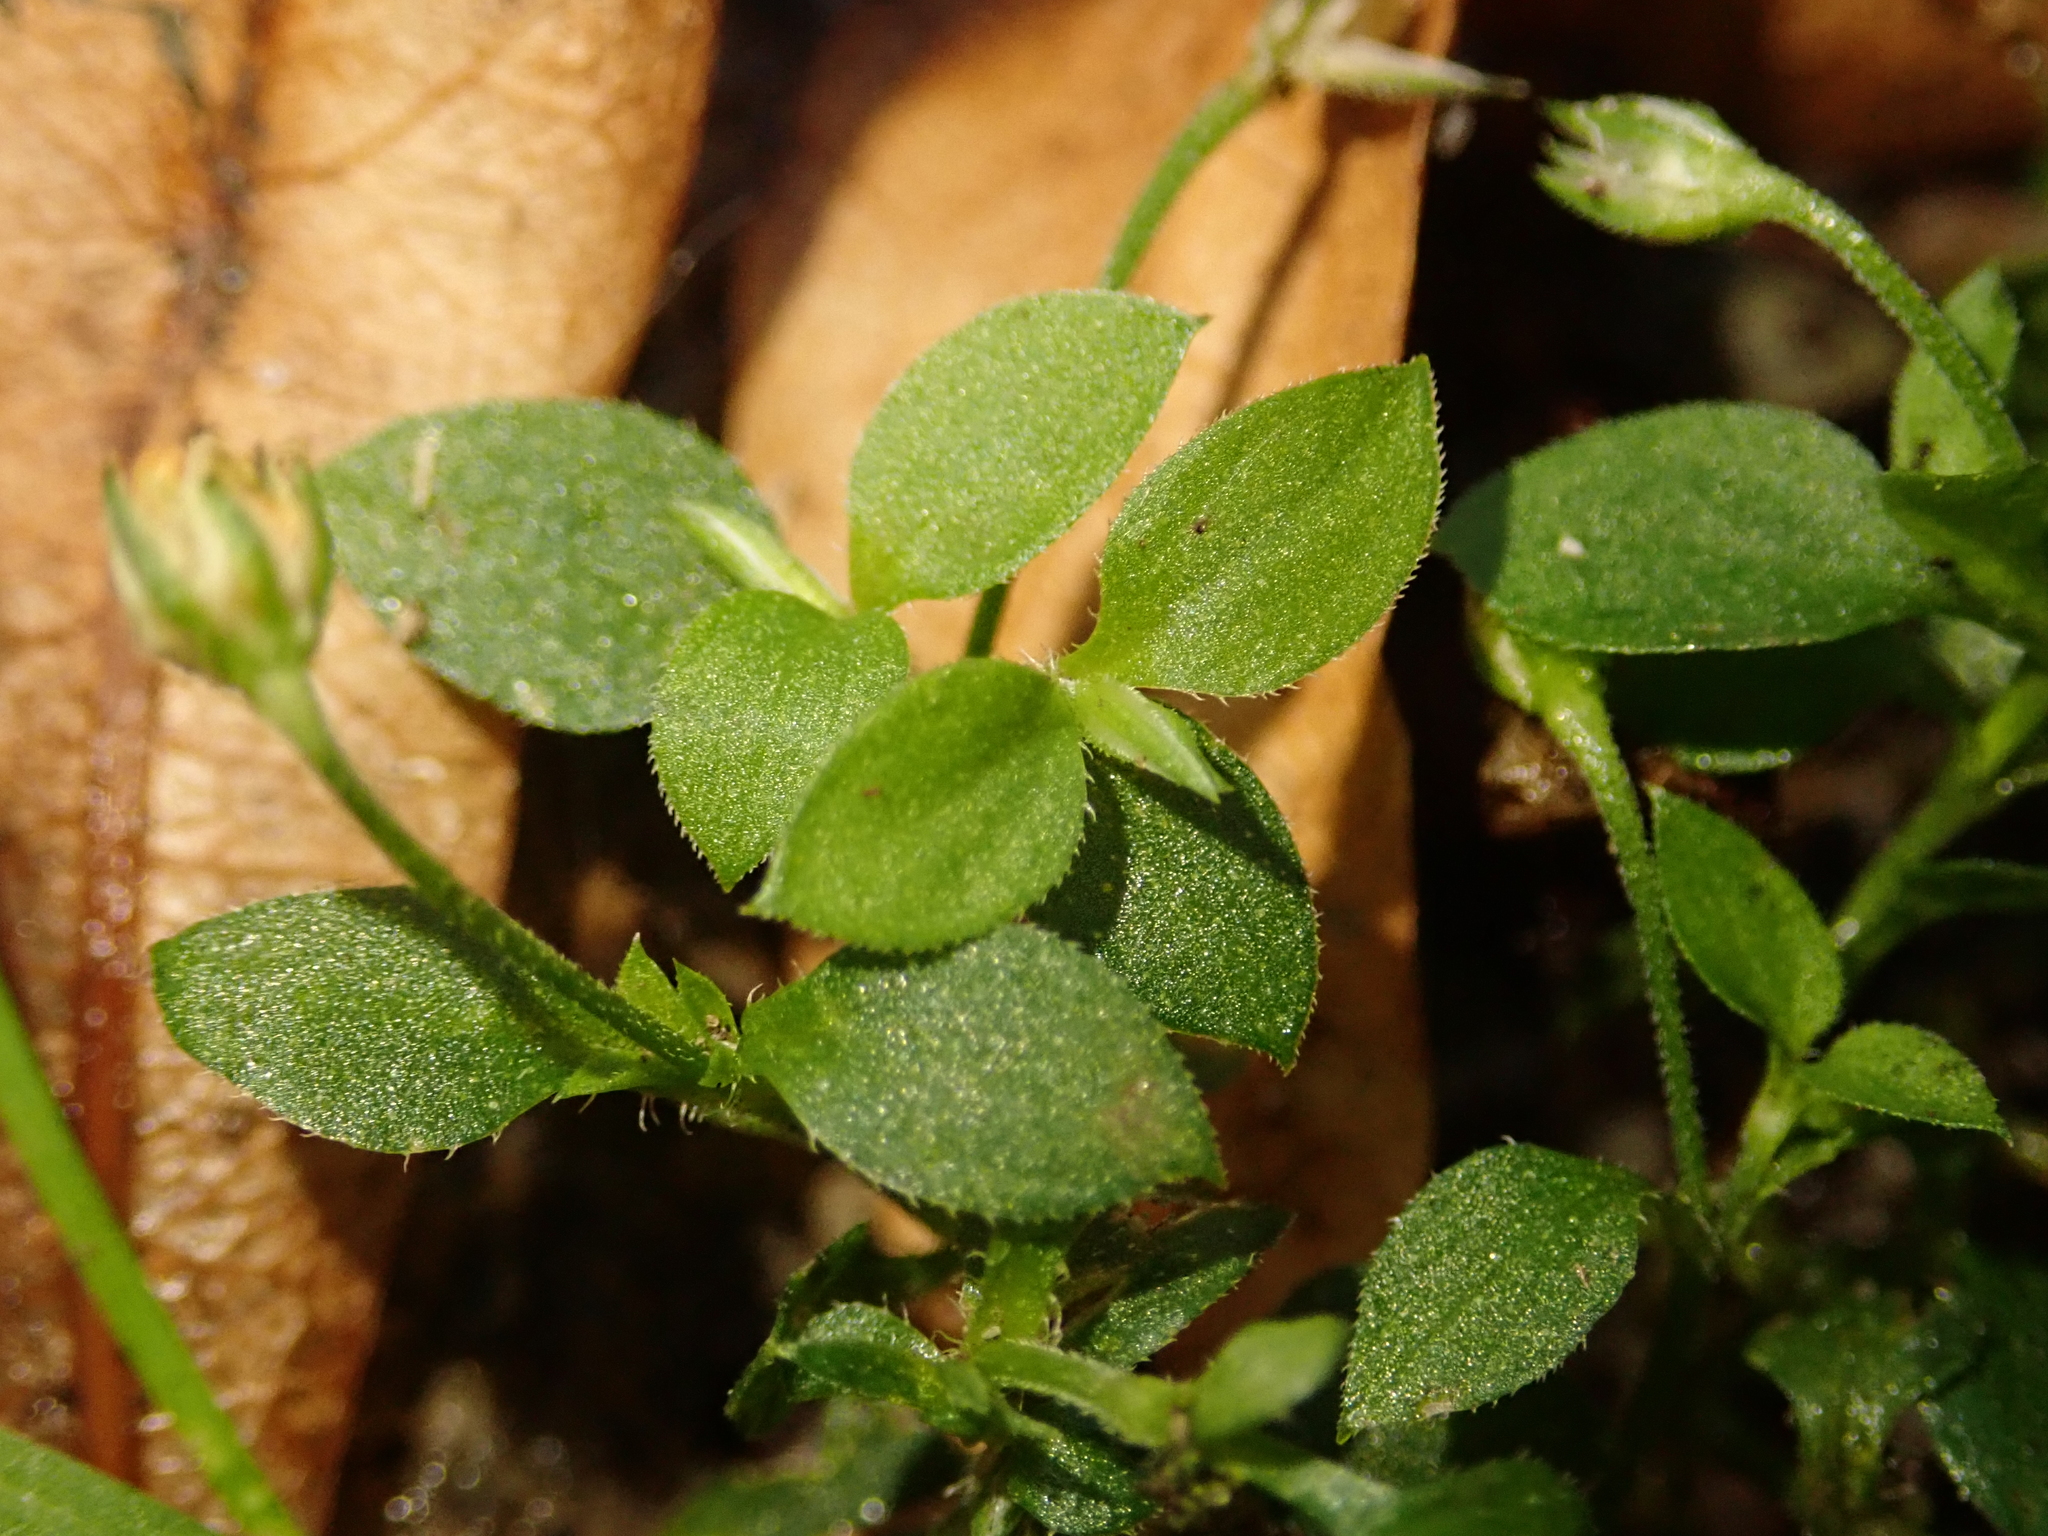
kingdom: Plantae
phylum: Tracheophyta
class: Magnoliopsida
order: Caryophyllales
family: Caryophyllaceae
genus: Moehringia
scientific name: Moehringia trinervia
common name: Three-nerved sandwort
